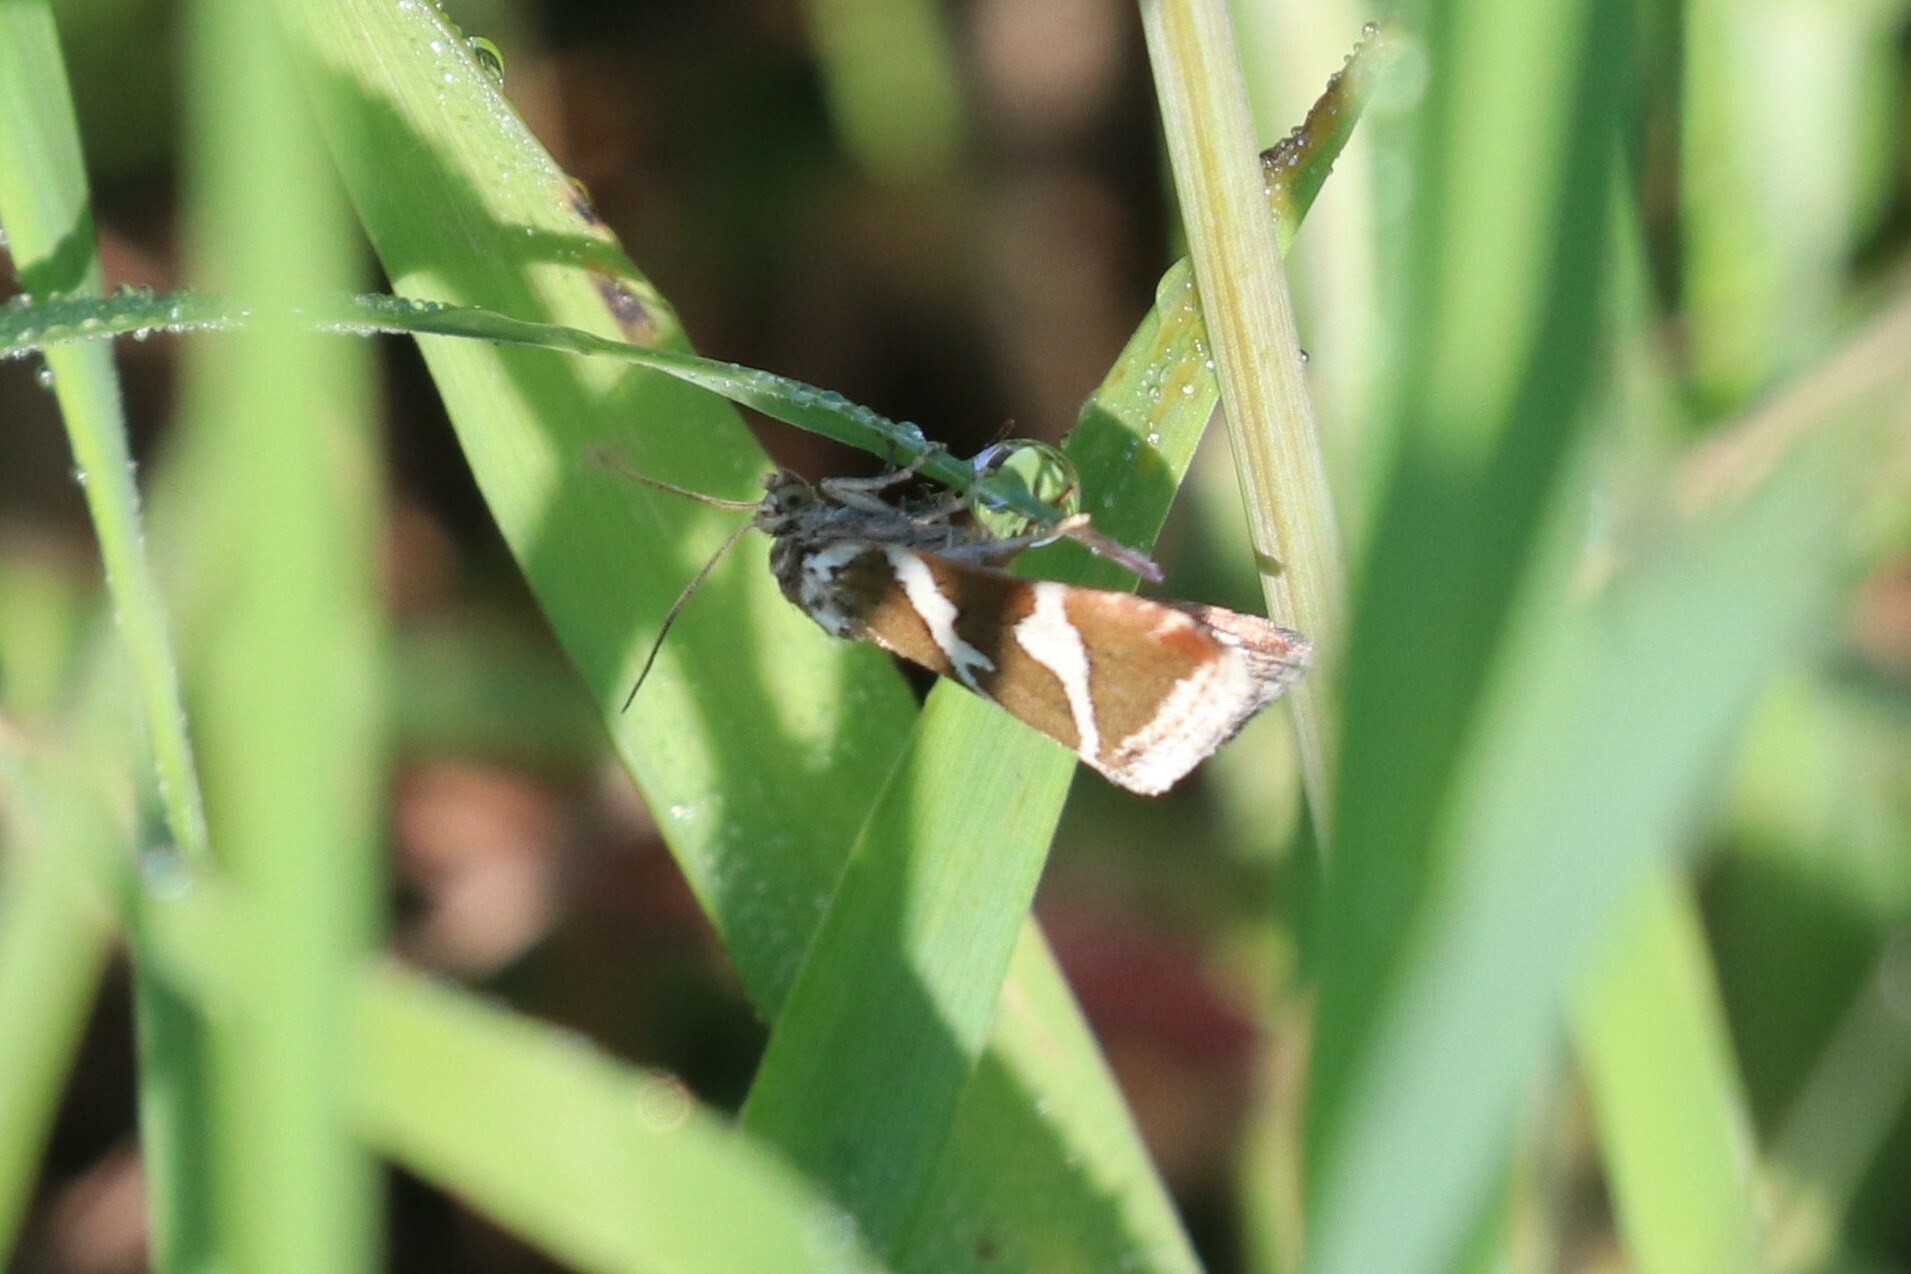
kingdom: Animalia
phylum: Arthropoda
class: Insecta
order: Lepidoptera
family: Noctuidae
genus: Deltote
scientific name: Deltote bankiana
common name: Silver barred
